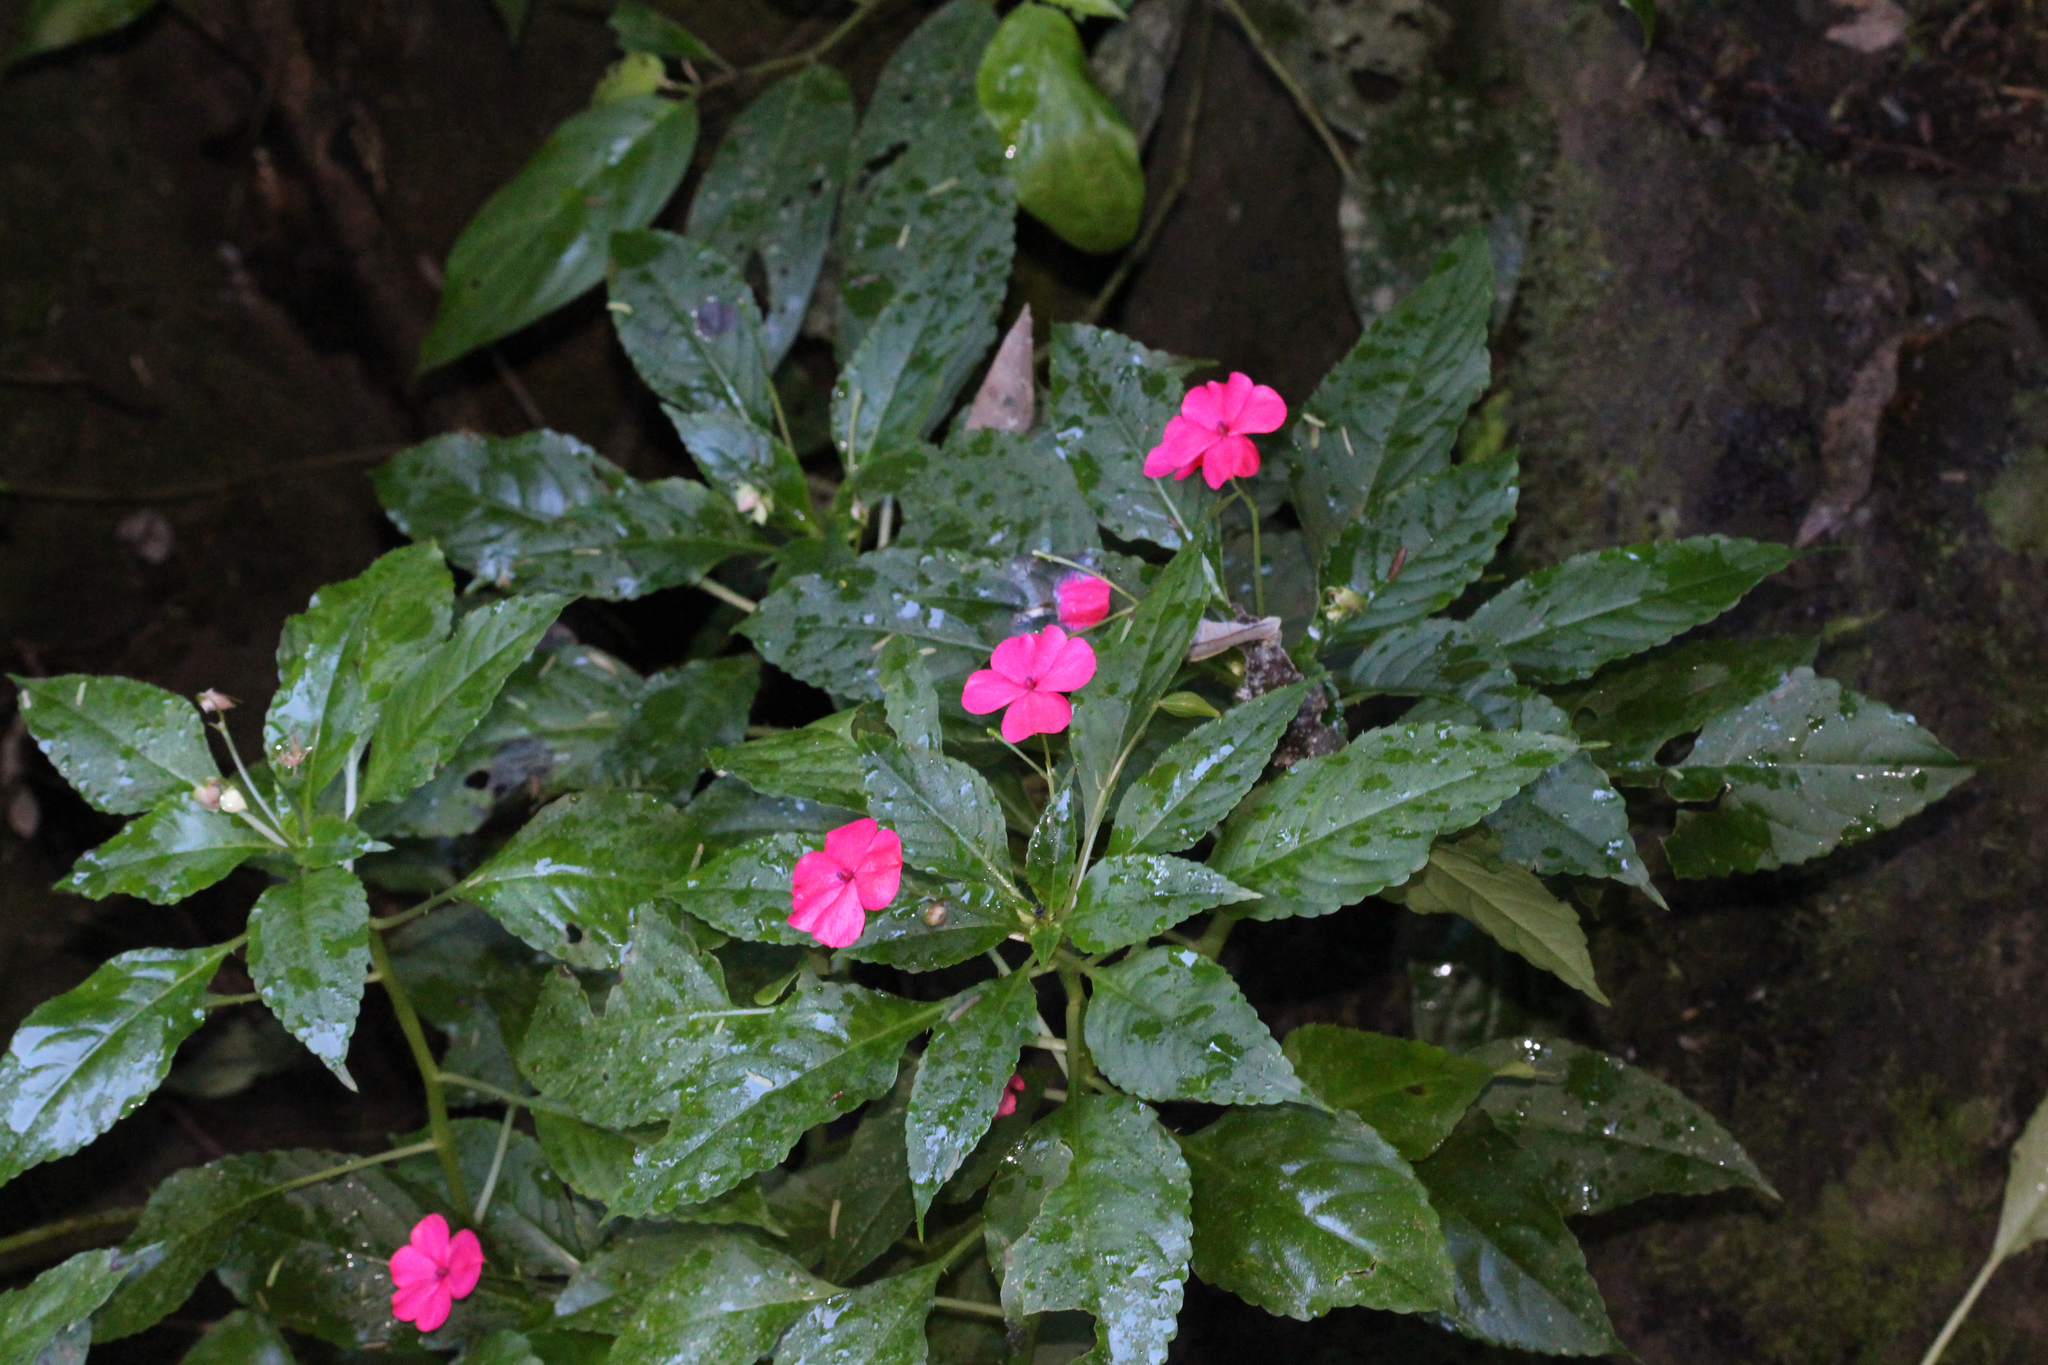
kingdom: Plantae
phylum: Tracheophyta
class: Magnoliopsida
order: Ericales
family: Balsaminaceae
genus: Impatiens
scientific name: Impatiens walleriana
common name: Buzzy lizzy
